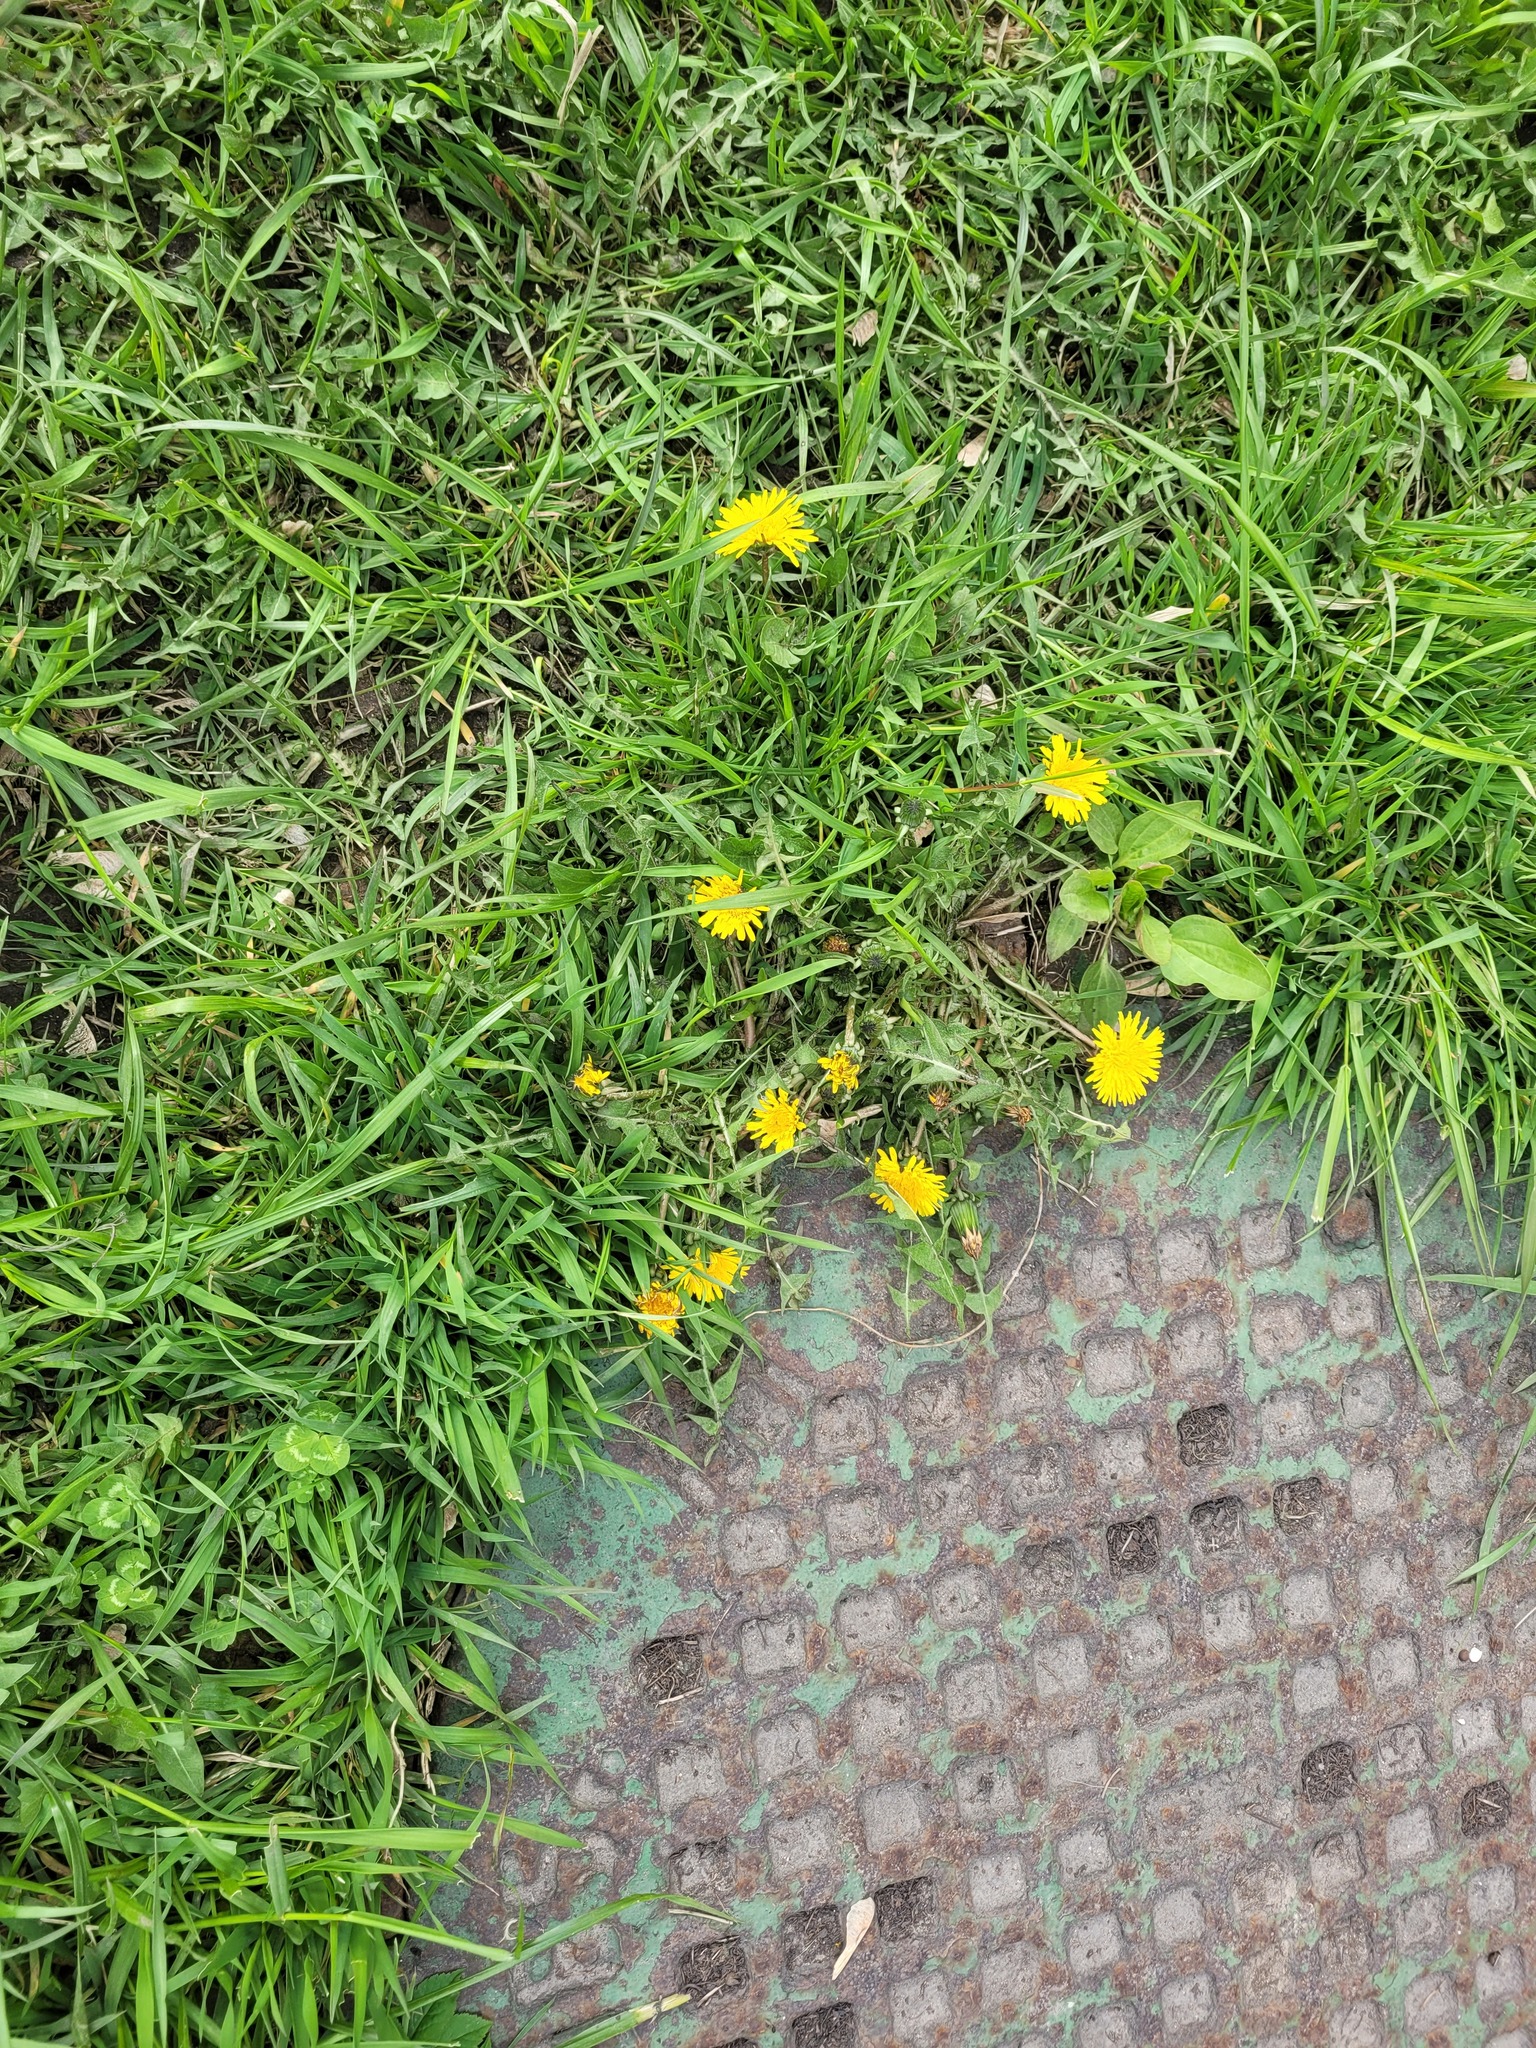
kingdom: Plantae
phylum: Tracheophyta
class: Magnoliopsida
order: Asterales
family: Asteraceae
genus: Taraxacum
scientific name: Taraxacum officinale
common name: Common dandelion
